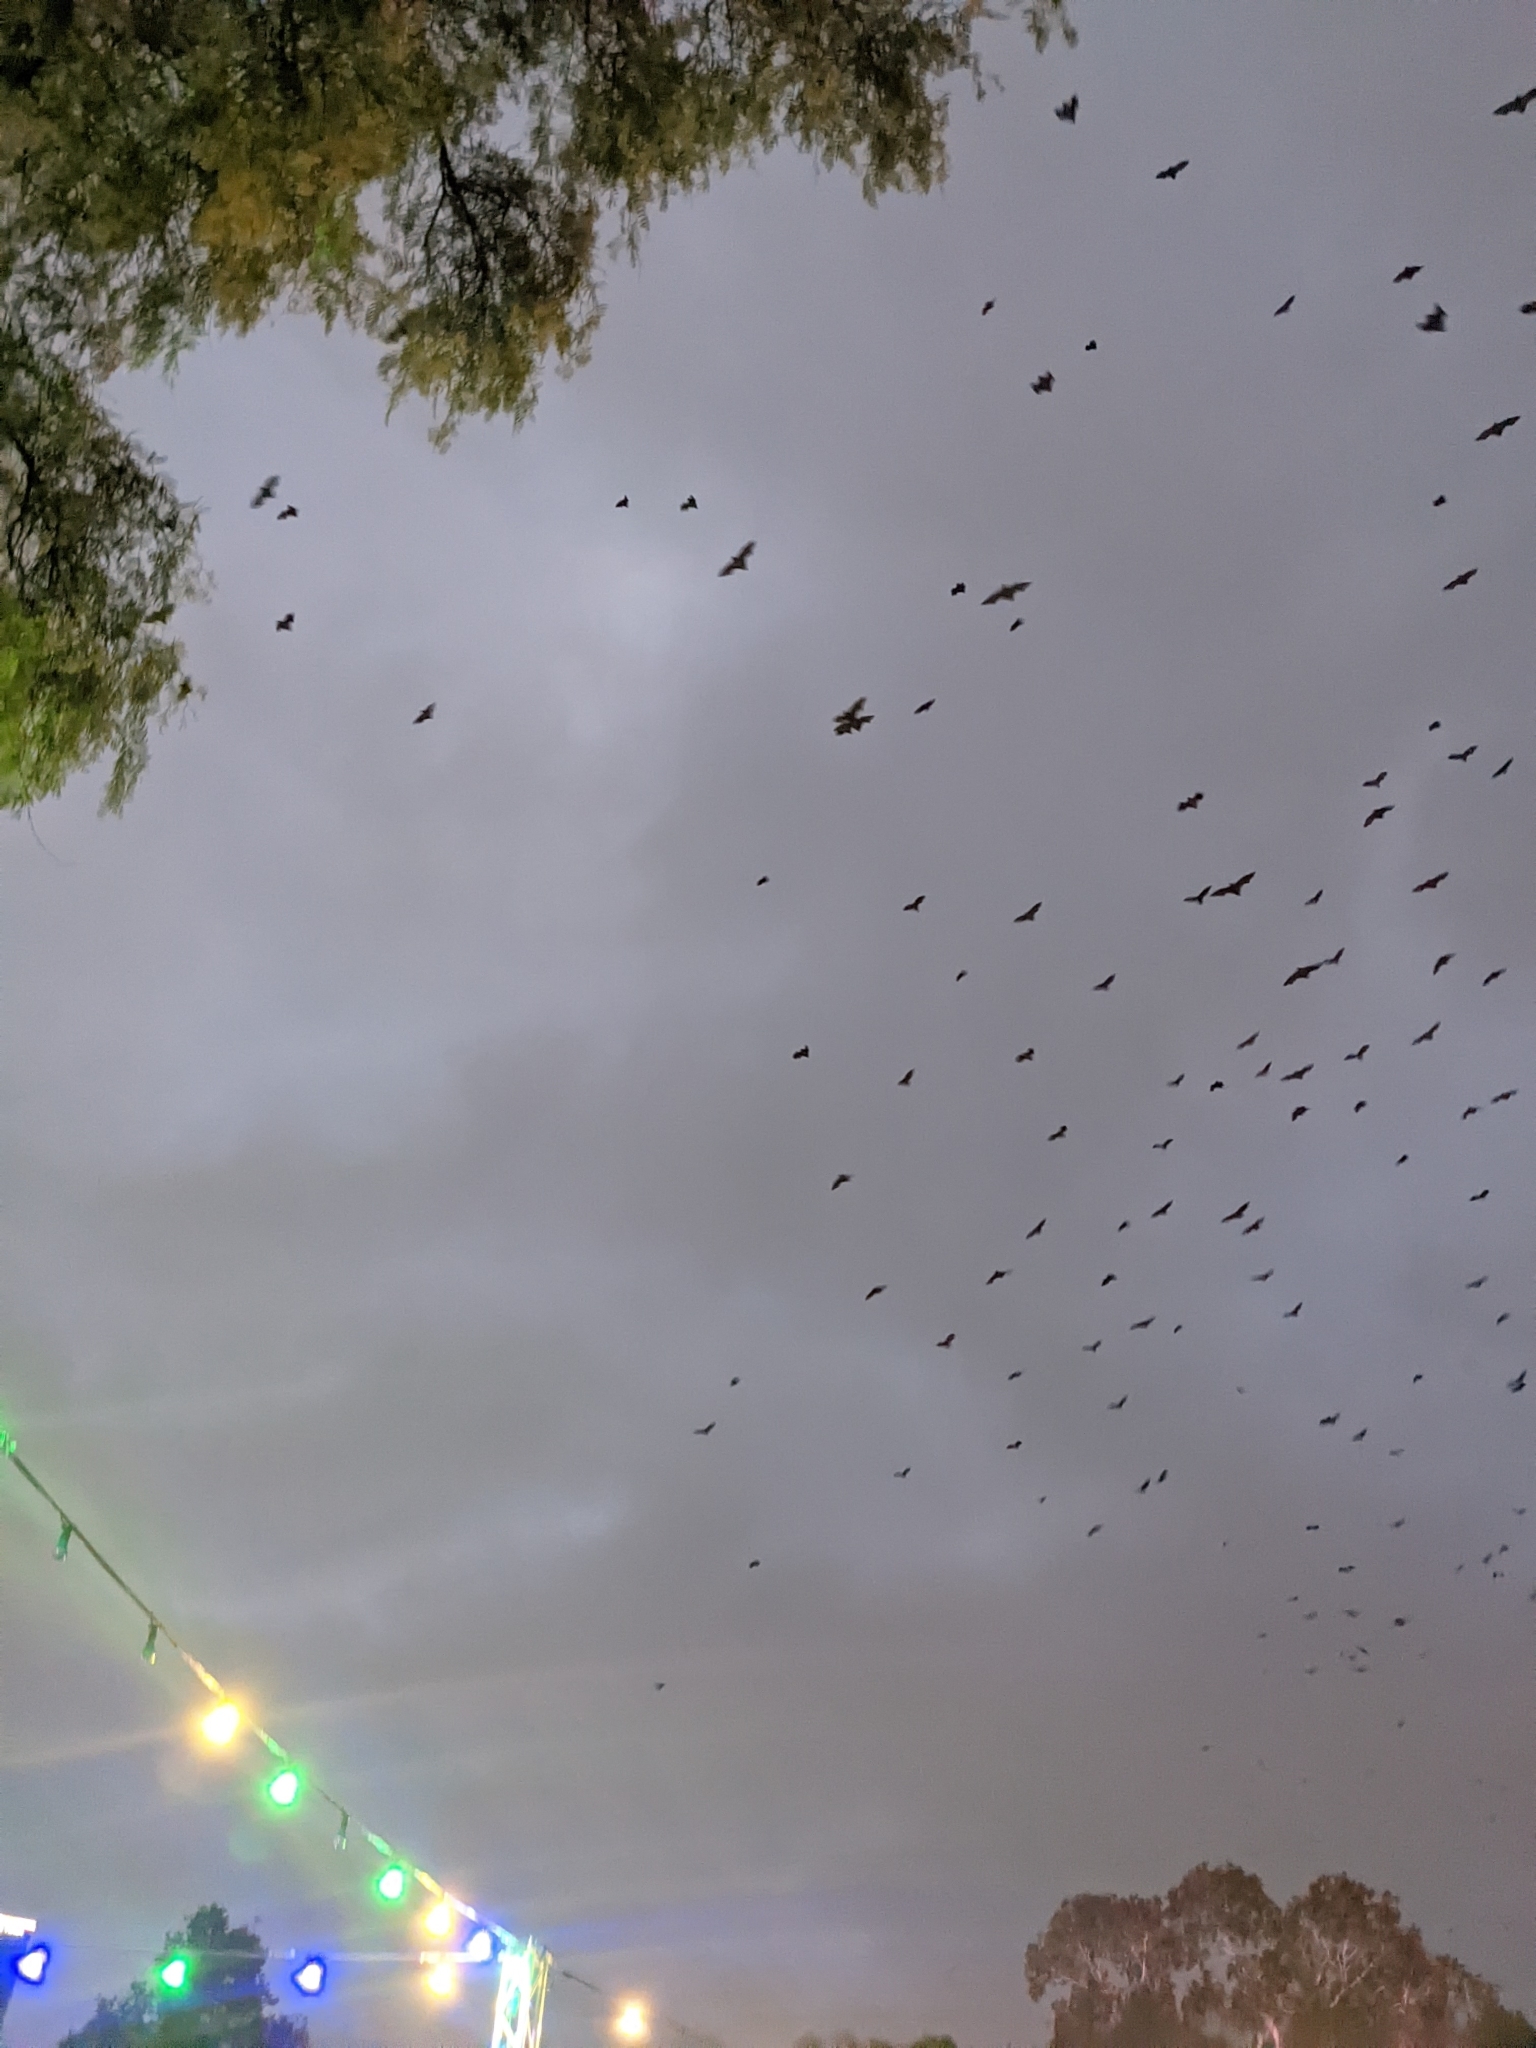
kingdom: Animalia
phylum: Chordata
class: Mammalia
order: Chiroptera
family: Pteropodidae
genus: Pteropus
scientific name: Pteropus poliocephalus
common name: Gray-headed flying fox
